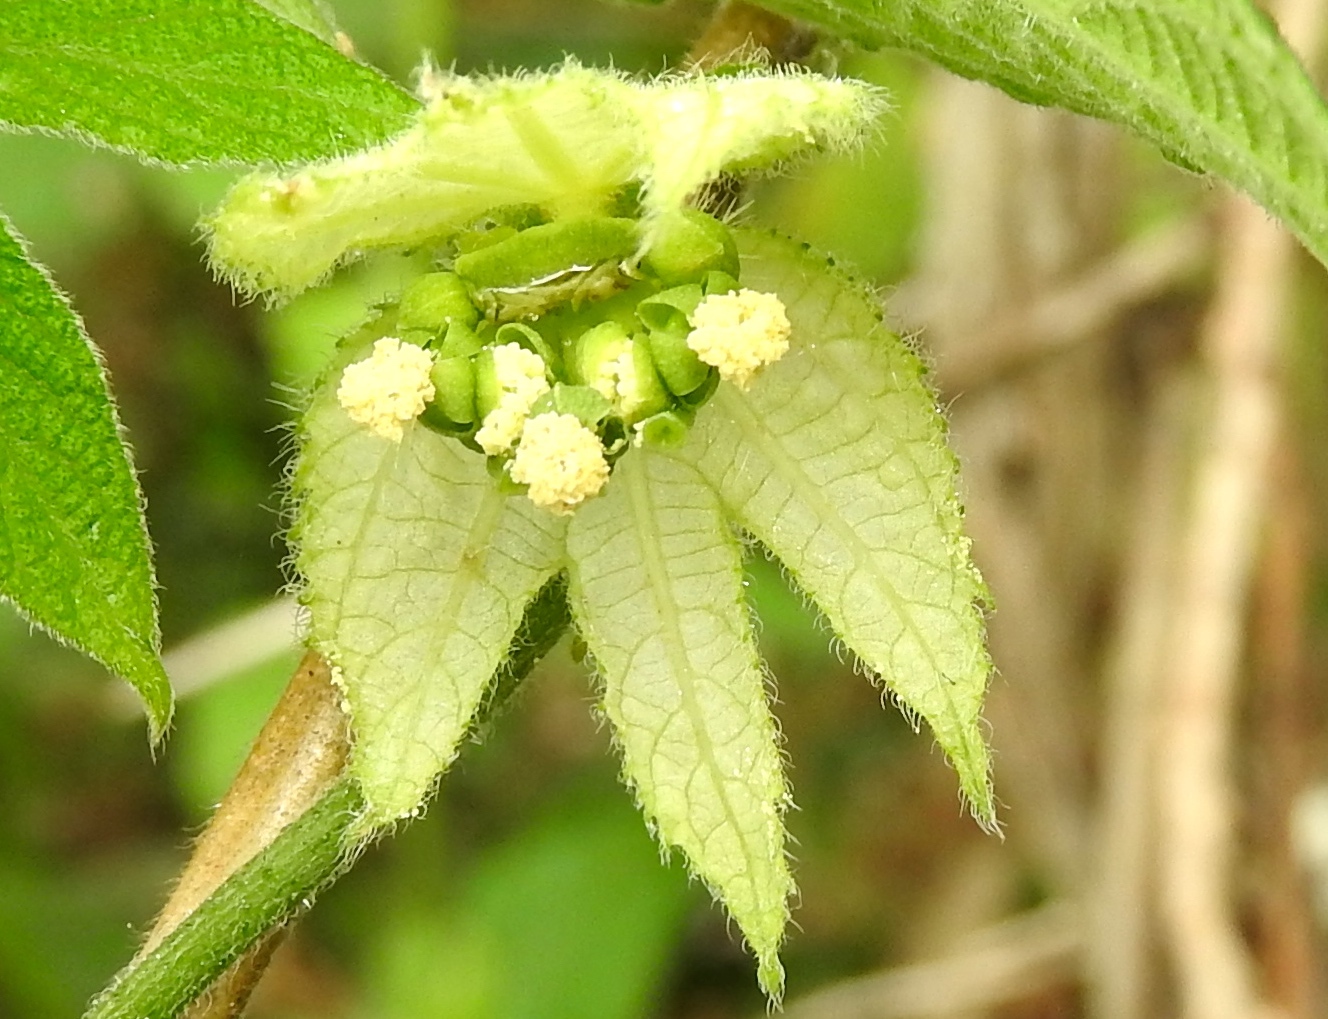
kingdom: Plantae
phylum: Tracheophyta
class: Magnoliopsida
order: Malpighiales
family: Euphorbiaceae
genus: Dalechampia
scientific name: Dalechampia scandens
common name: Spurgecreeper
